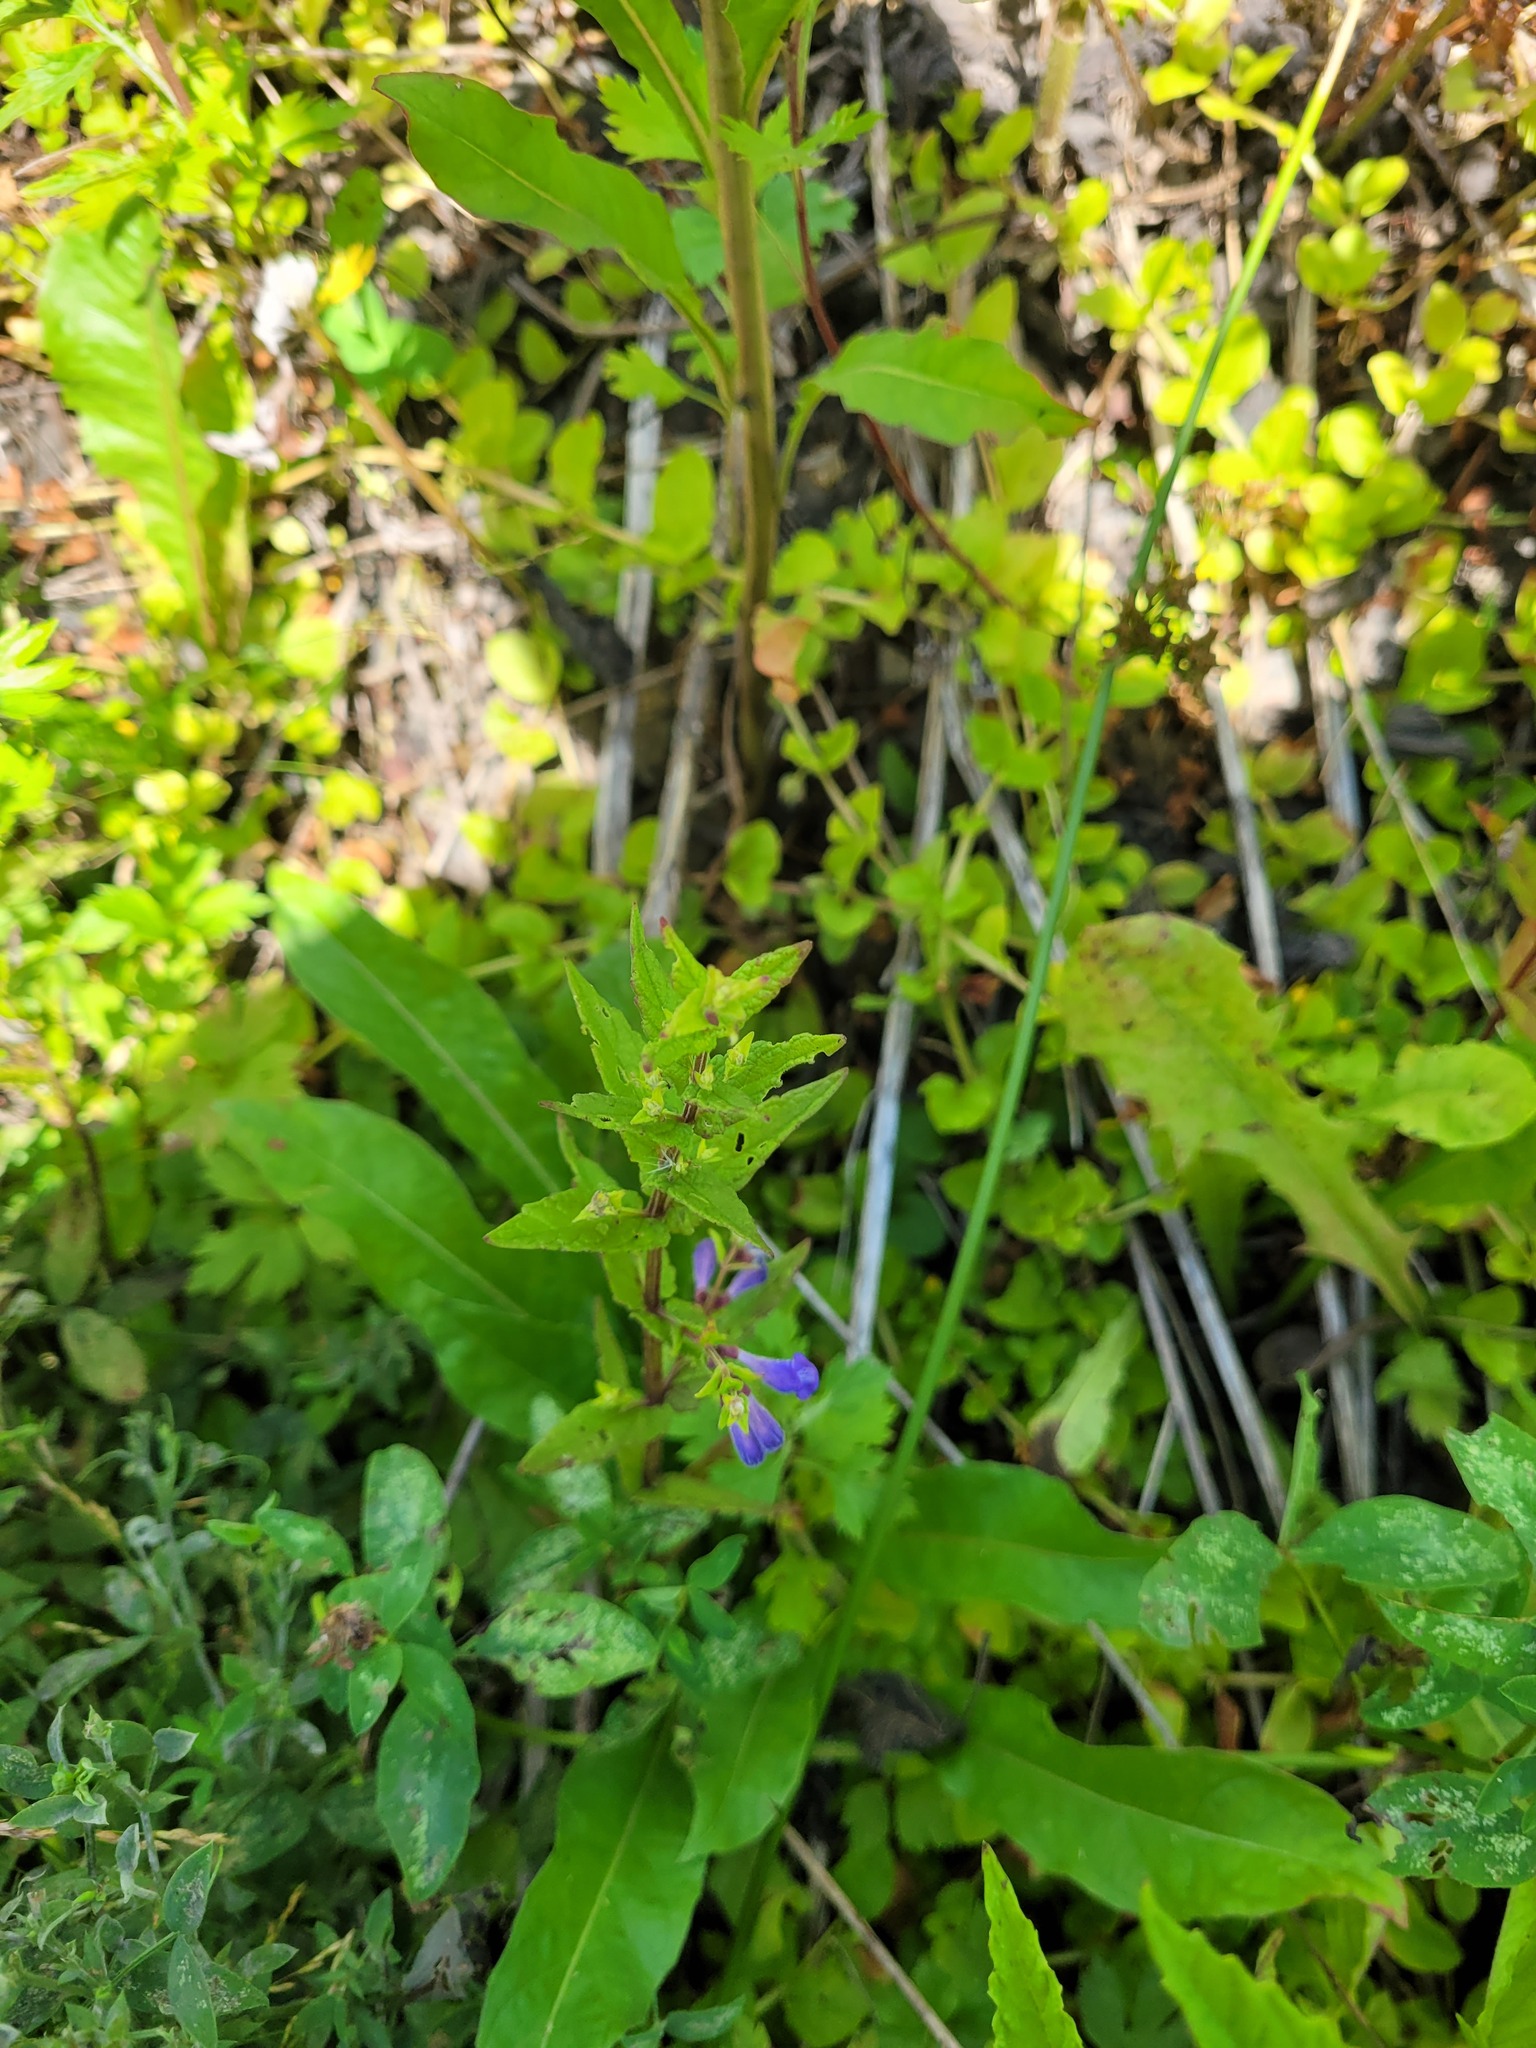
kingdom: Plantae
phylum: Tracheophyta
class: Magnoliopsida
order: Lamiales
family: Lamiaceae
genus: Scutellaria
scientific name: Scutellaria galericulata
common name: Skullcap
